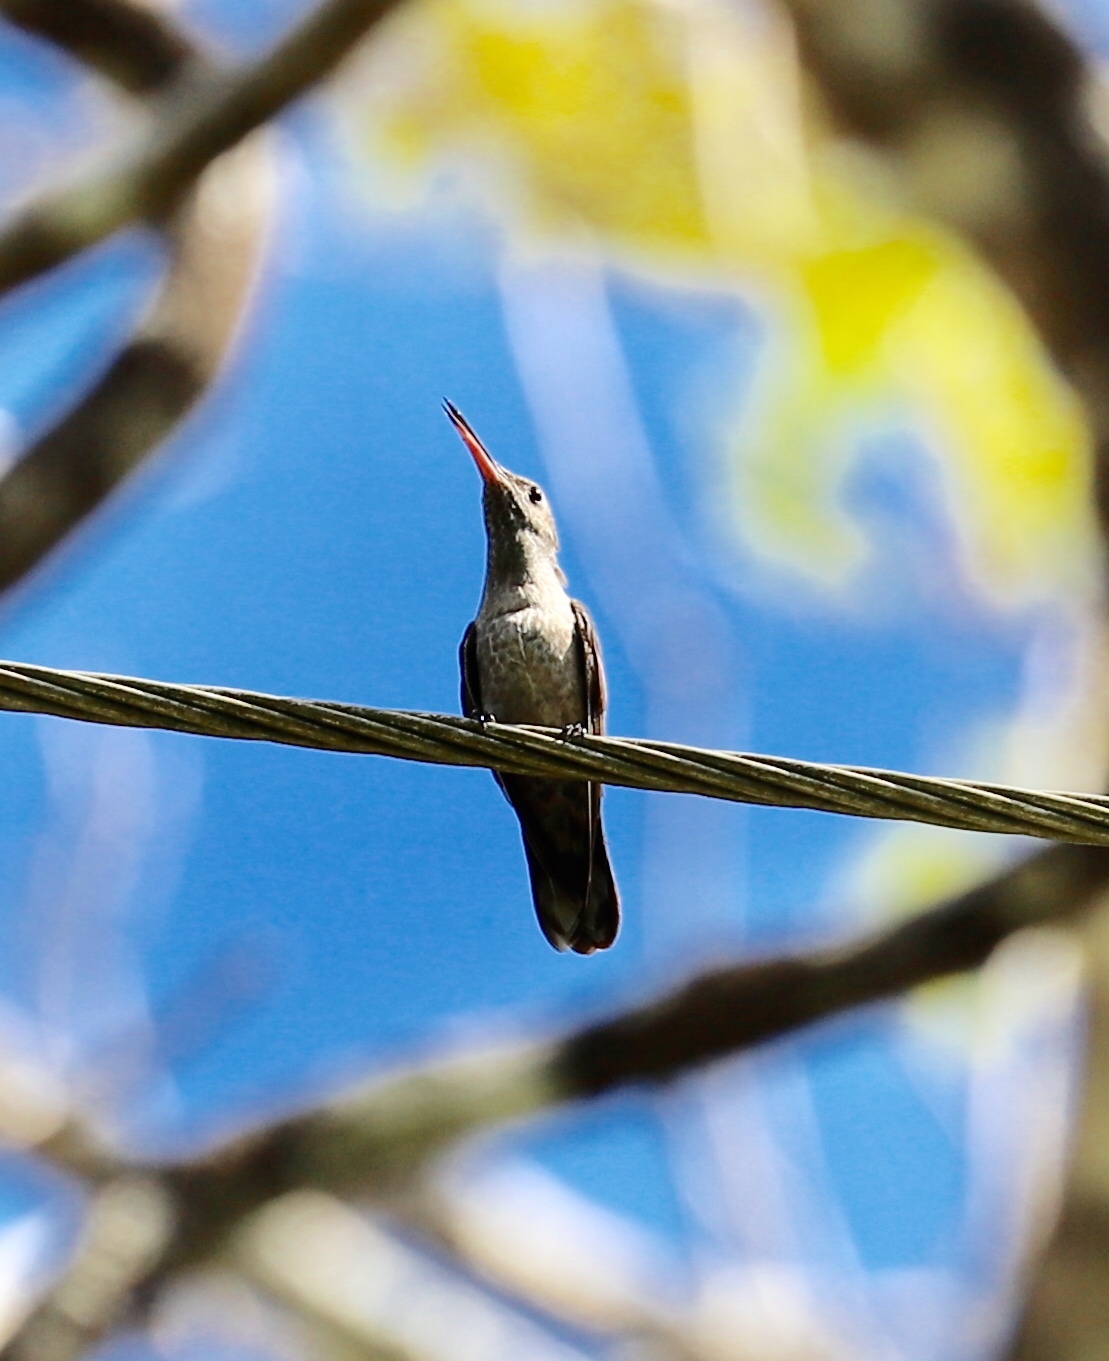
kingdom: Animalia
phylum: Chordata
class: Aves
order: Apodiformes
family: Trochilidae
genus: Phaeochroa
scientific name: Phaeochroa cuvierii
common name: Scaly-breasted hummingbird
